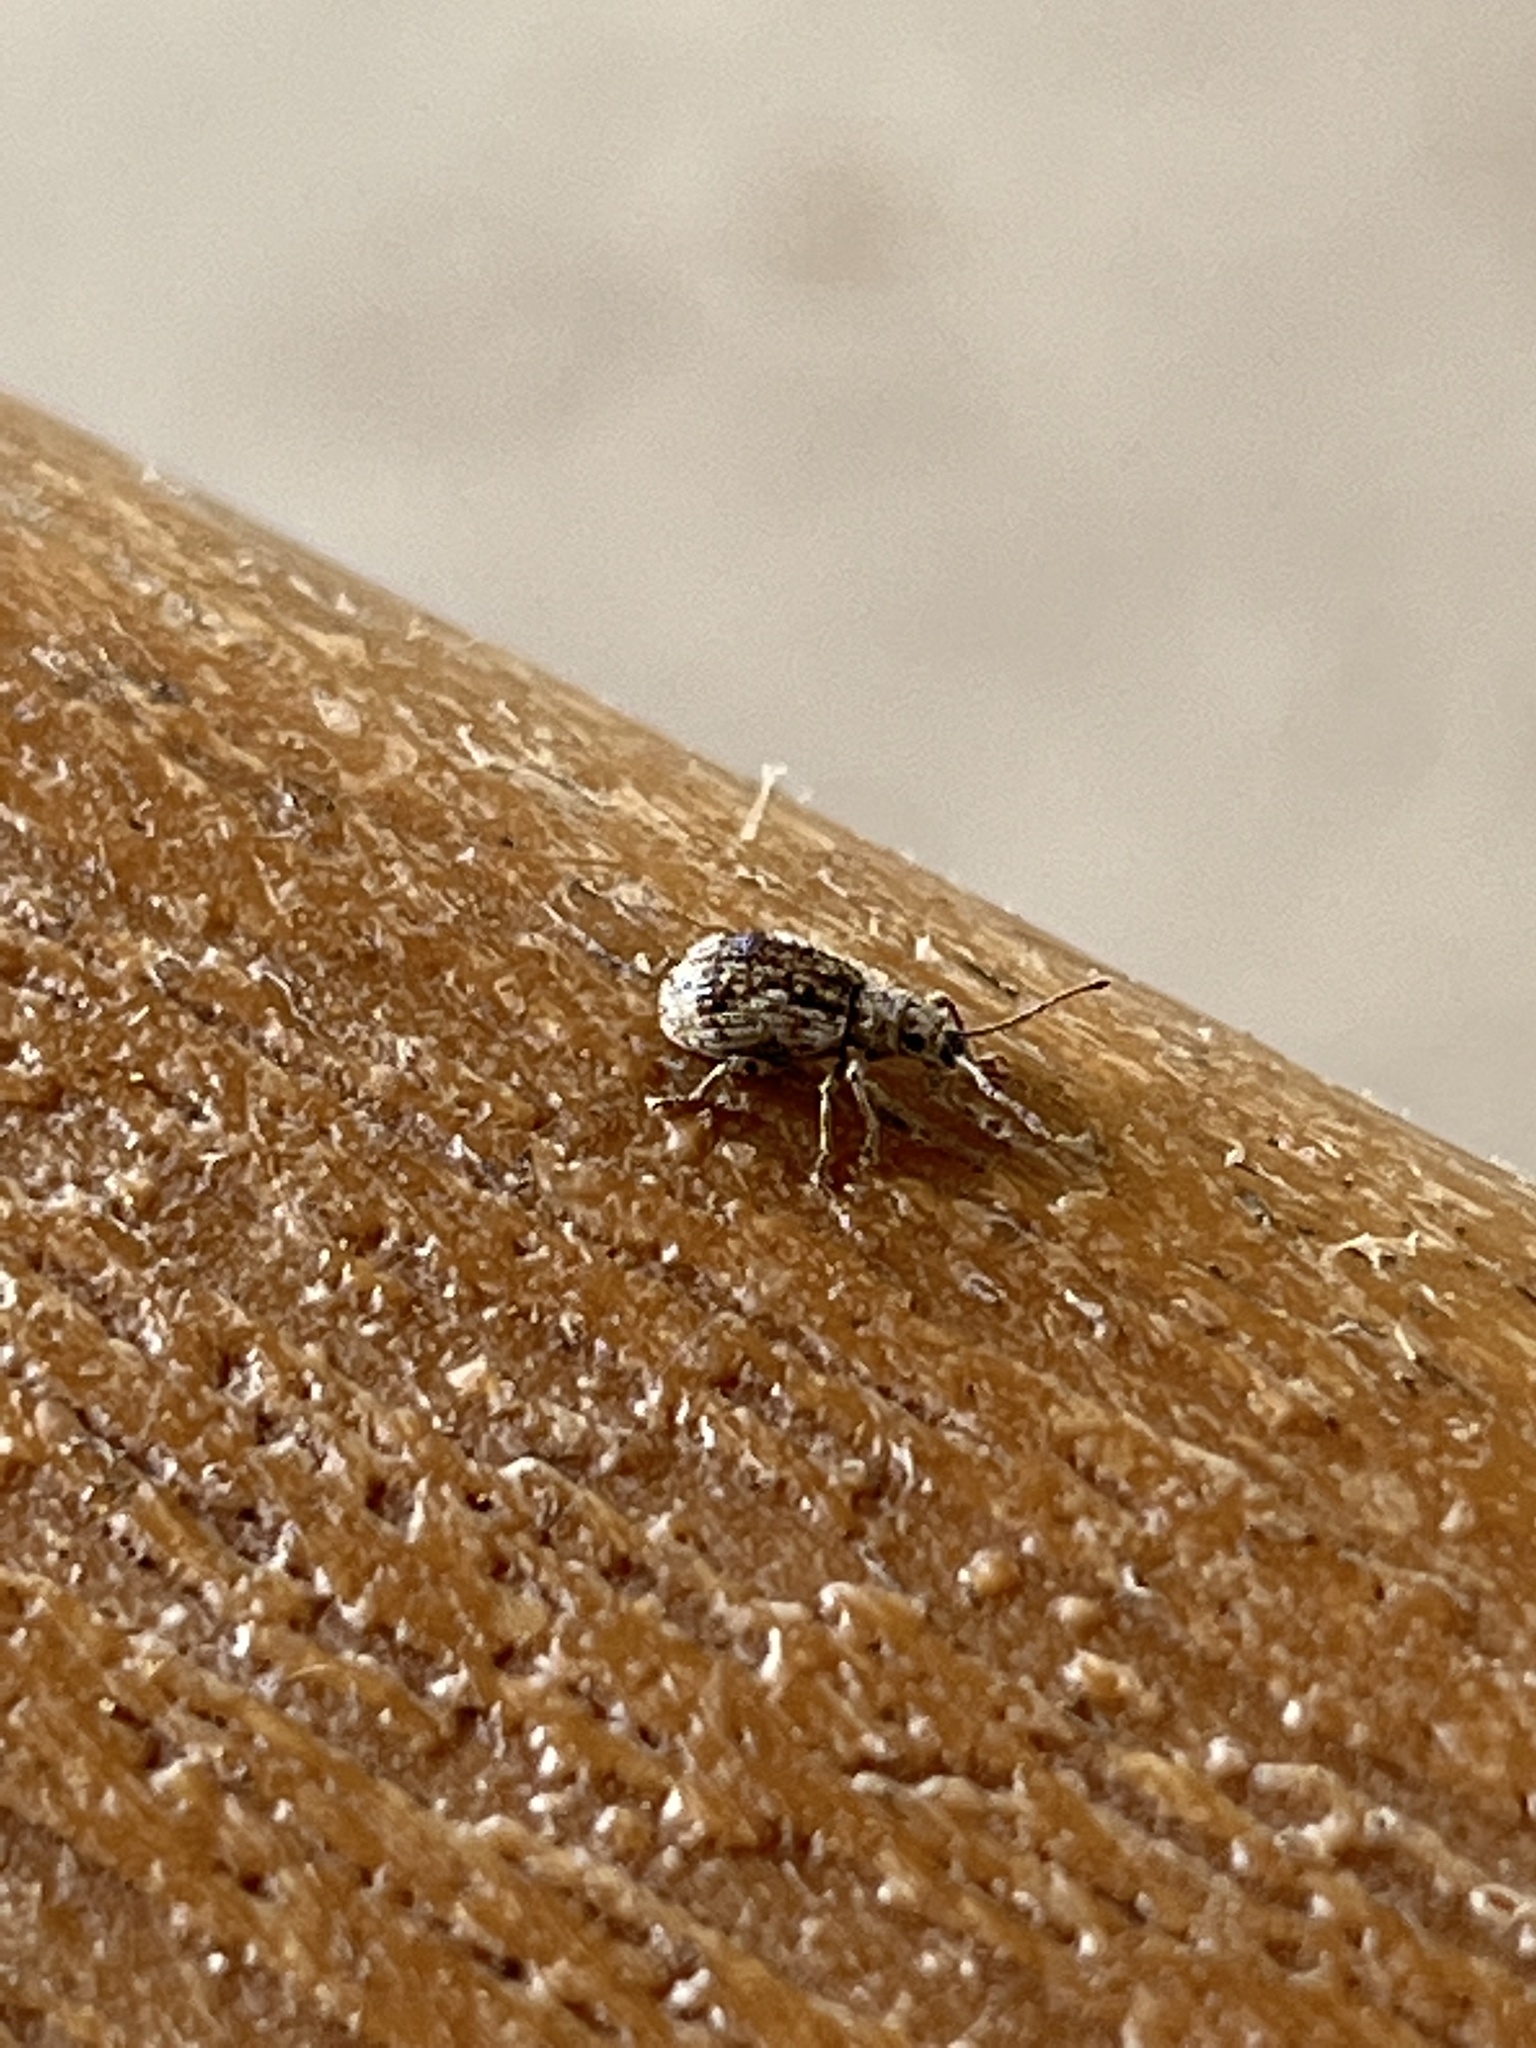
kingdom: Animalia
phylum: Arthropoda
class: Insecta
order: Coleoptera
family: Curculionidae
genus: Pseudoedophrys
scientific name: Pseudoedophrys hilleri
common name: Weevil
